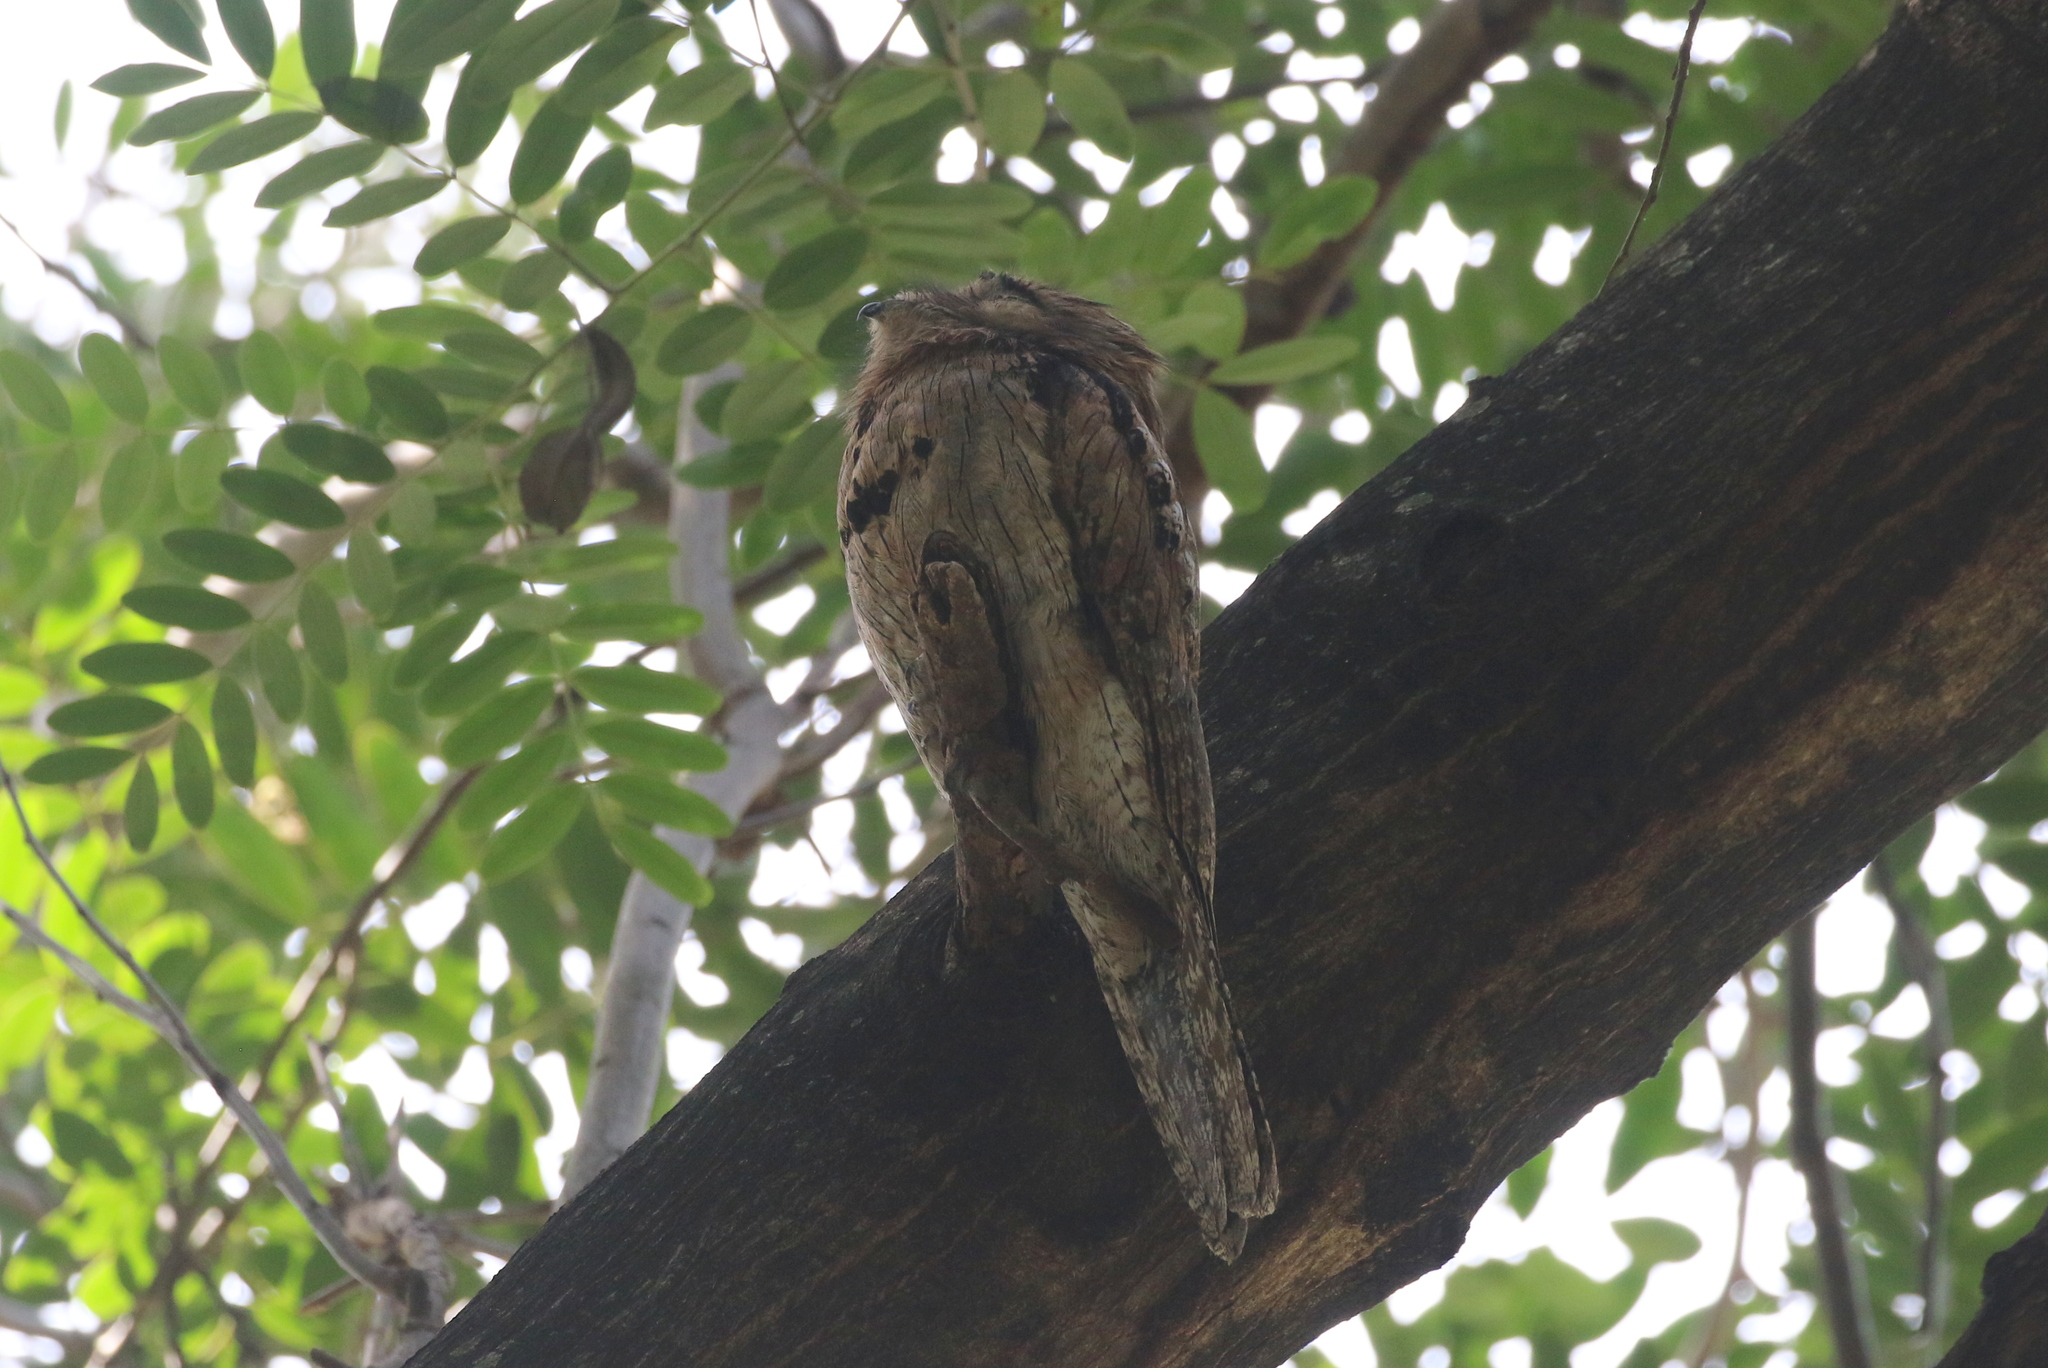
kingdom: Animalia
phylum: Chordata
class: Aves
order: Nyctibiiformes
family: Nyctibiidae
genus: Nyctibius
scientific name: Nyctibius jamaicensis
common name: Northern potoo
